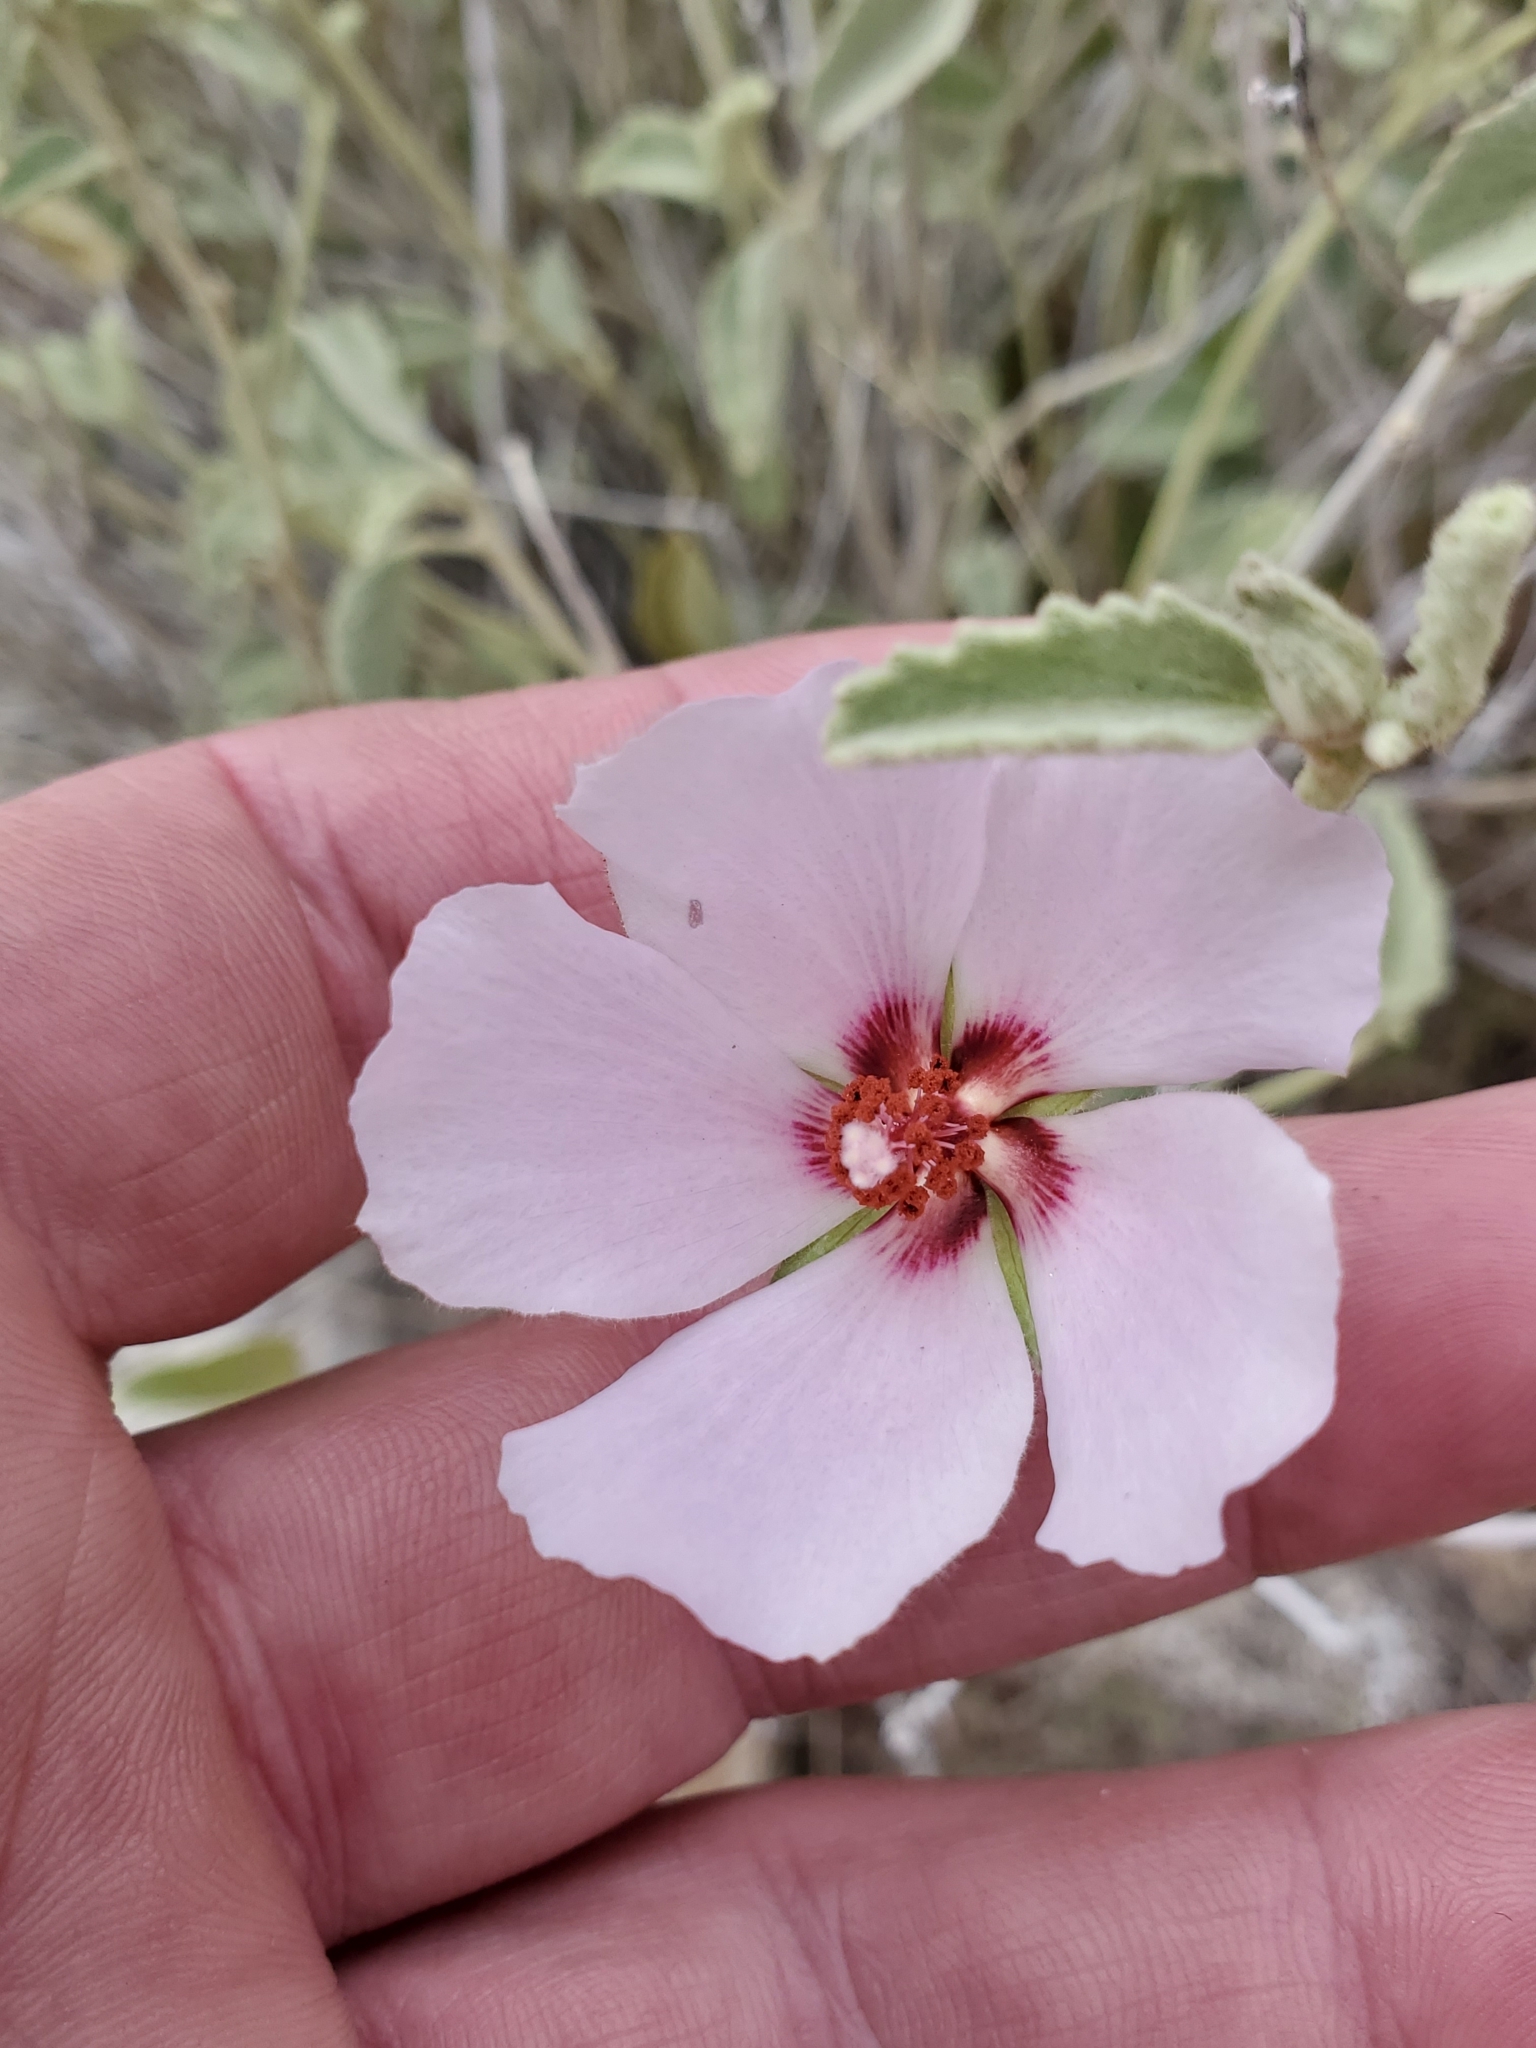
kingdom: Plantae
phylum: Tracheophyta
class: Magnoliopsida
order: Malvales
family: Malvaceae
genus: Hibiscus
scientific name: Hibiscus denudatus
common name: Paleface
